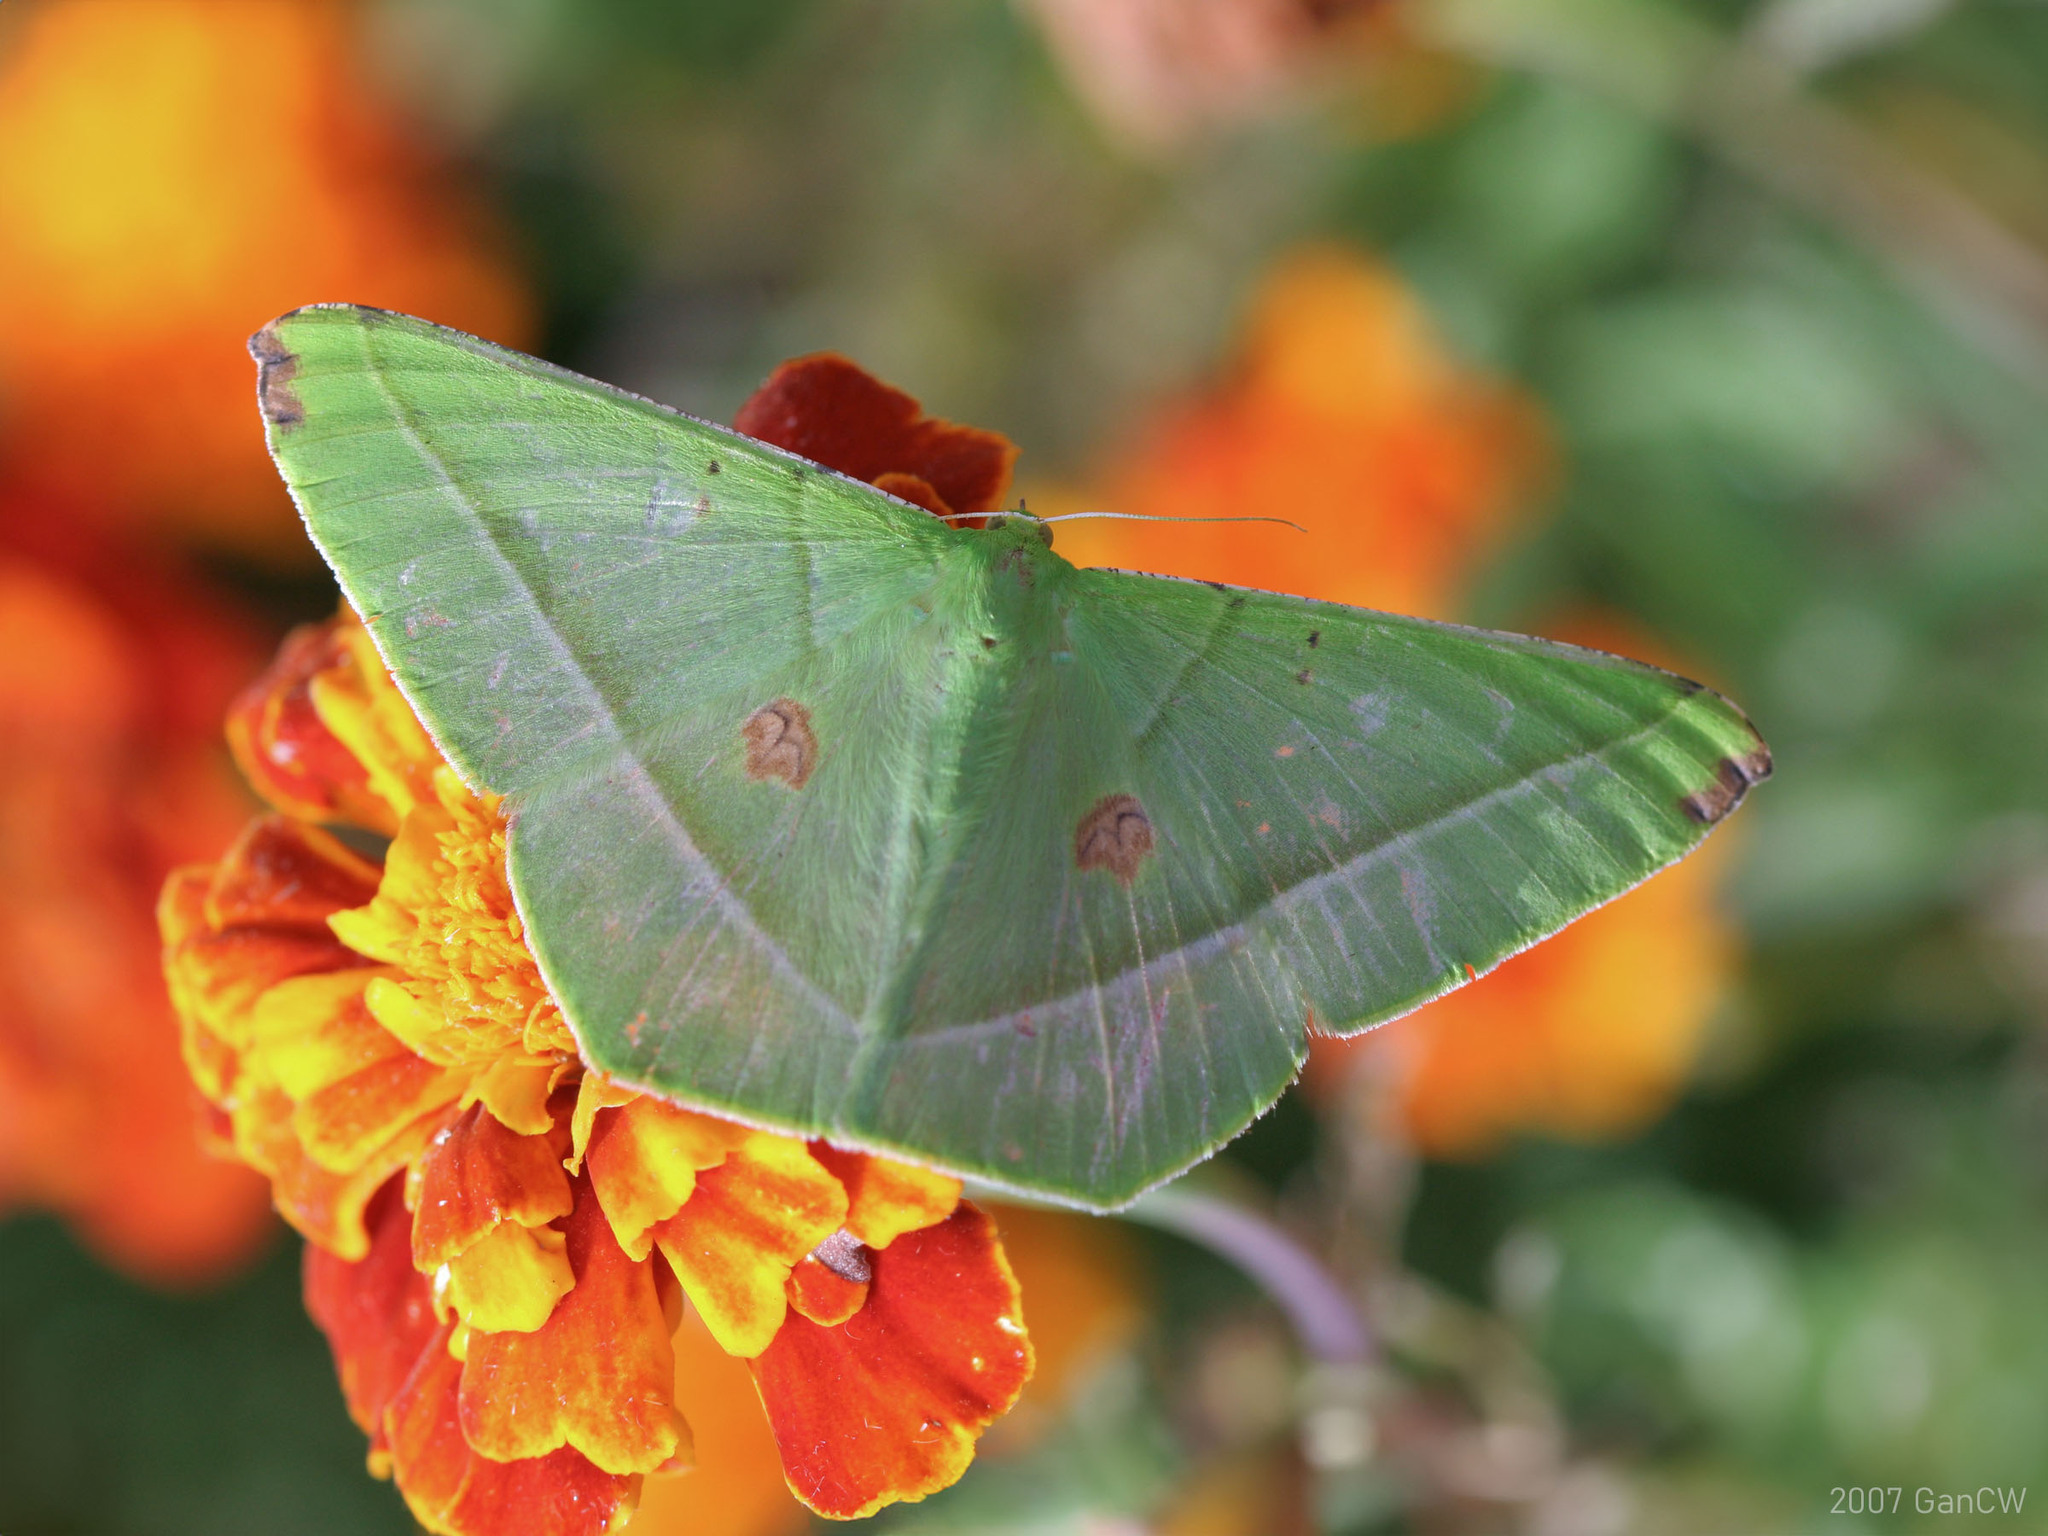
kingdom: Animalia
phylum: Arthropoda
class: Insecta
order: Lepidoptera
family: Geometridae
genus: Ornithospila
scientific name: Ornithospila esmeralda
